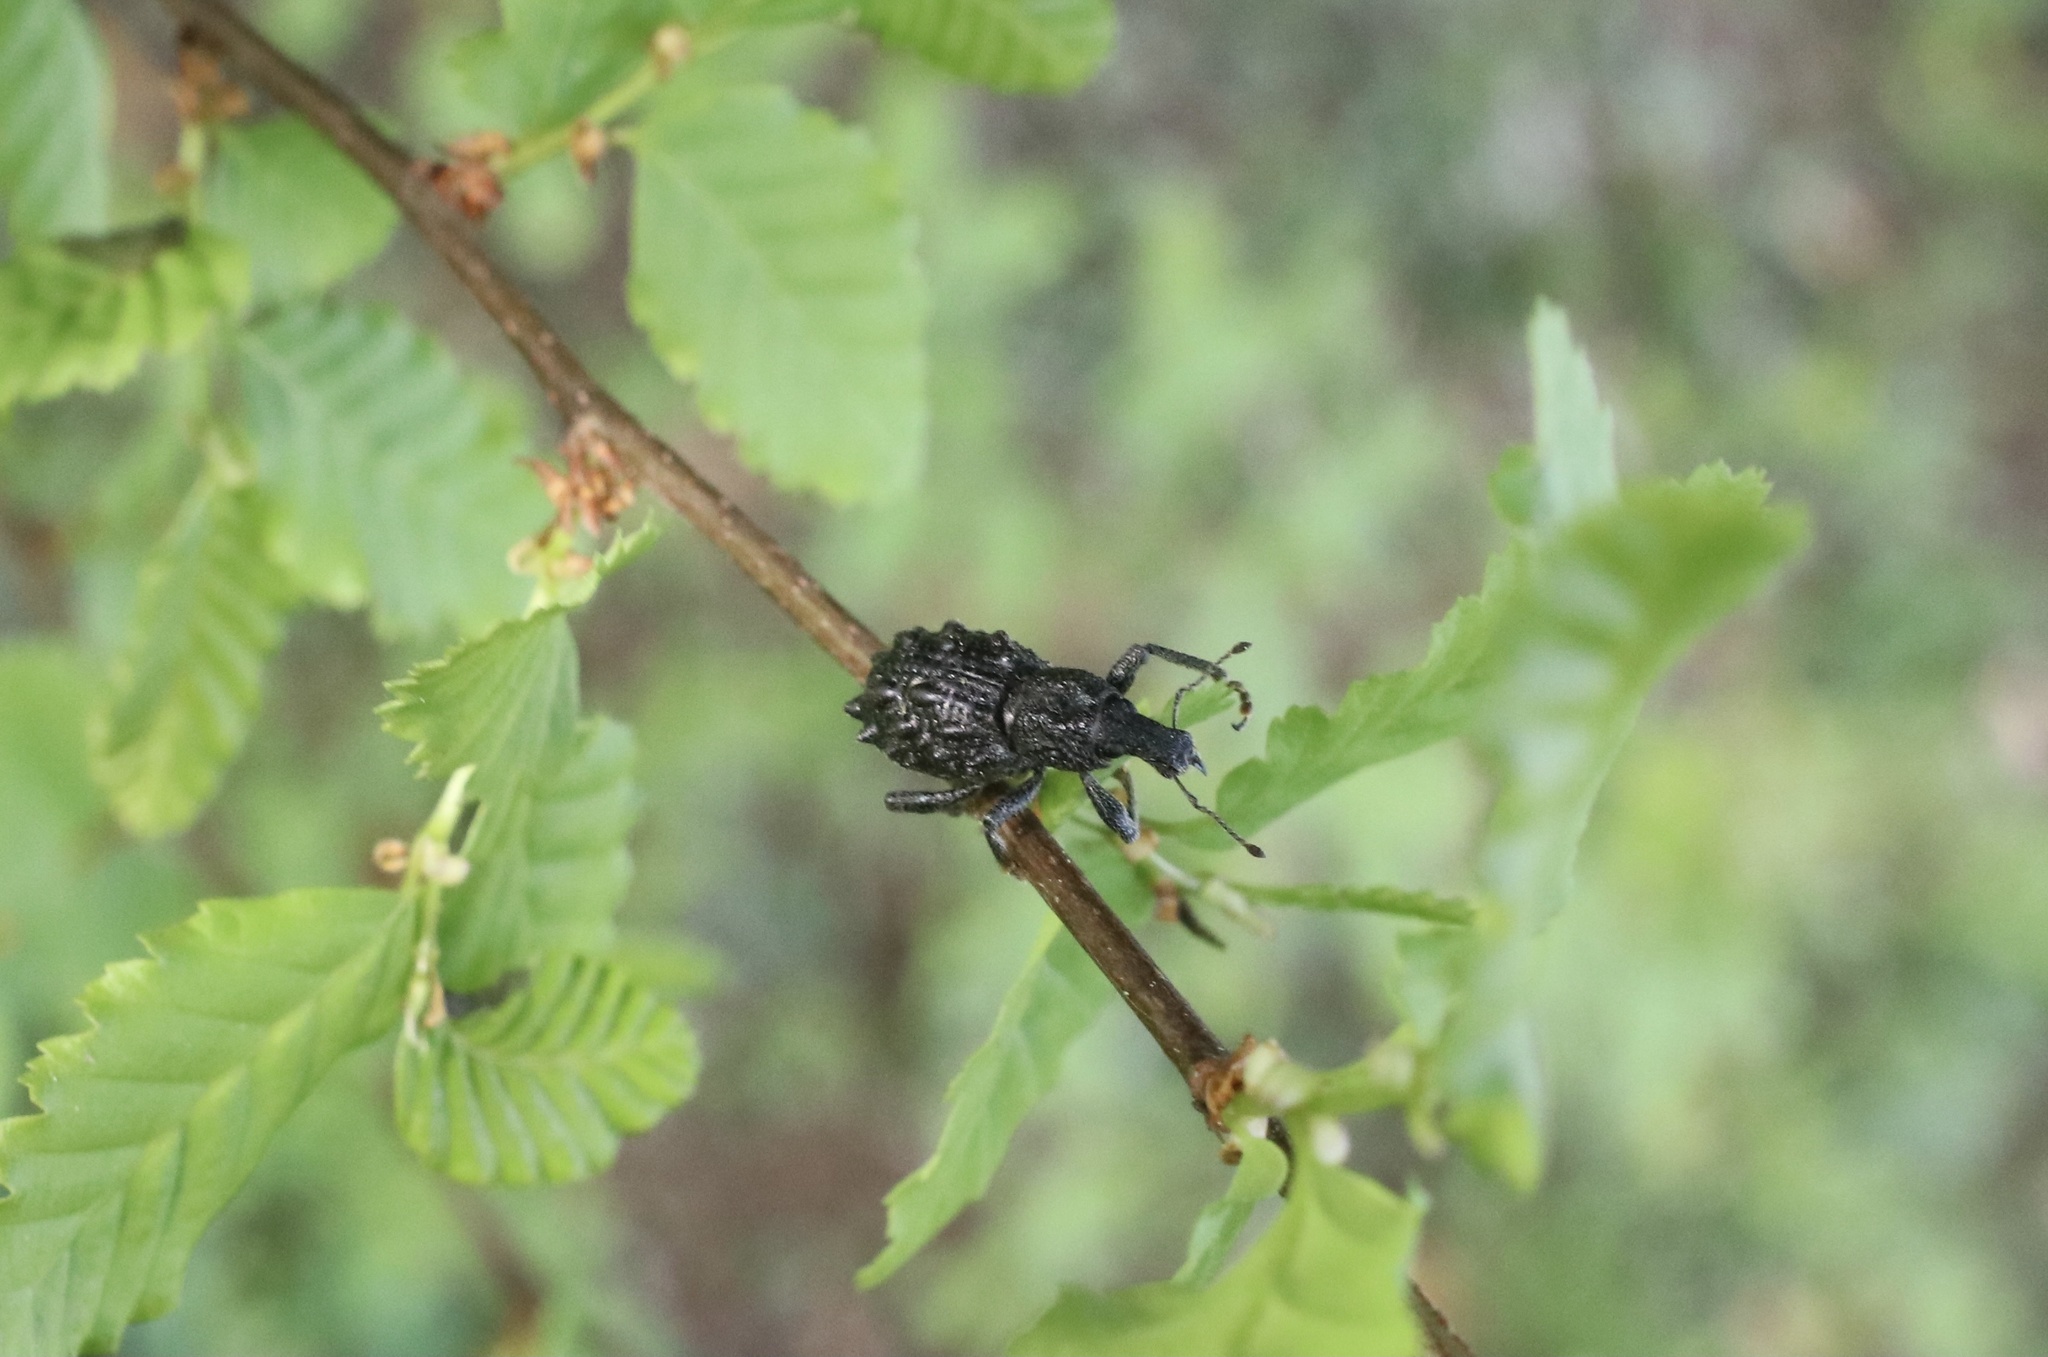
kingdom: Animalia
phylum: Arthropoda
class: Insecta
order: Coleoptera
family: Curculionidae
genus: Megalometis
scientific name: Megalometis spiniferus
